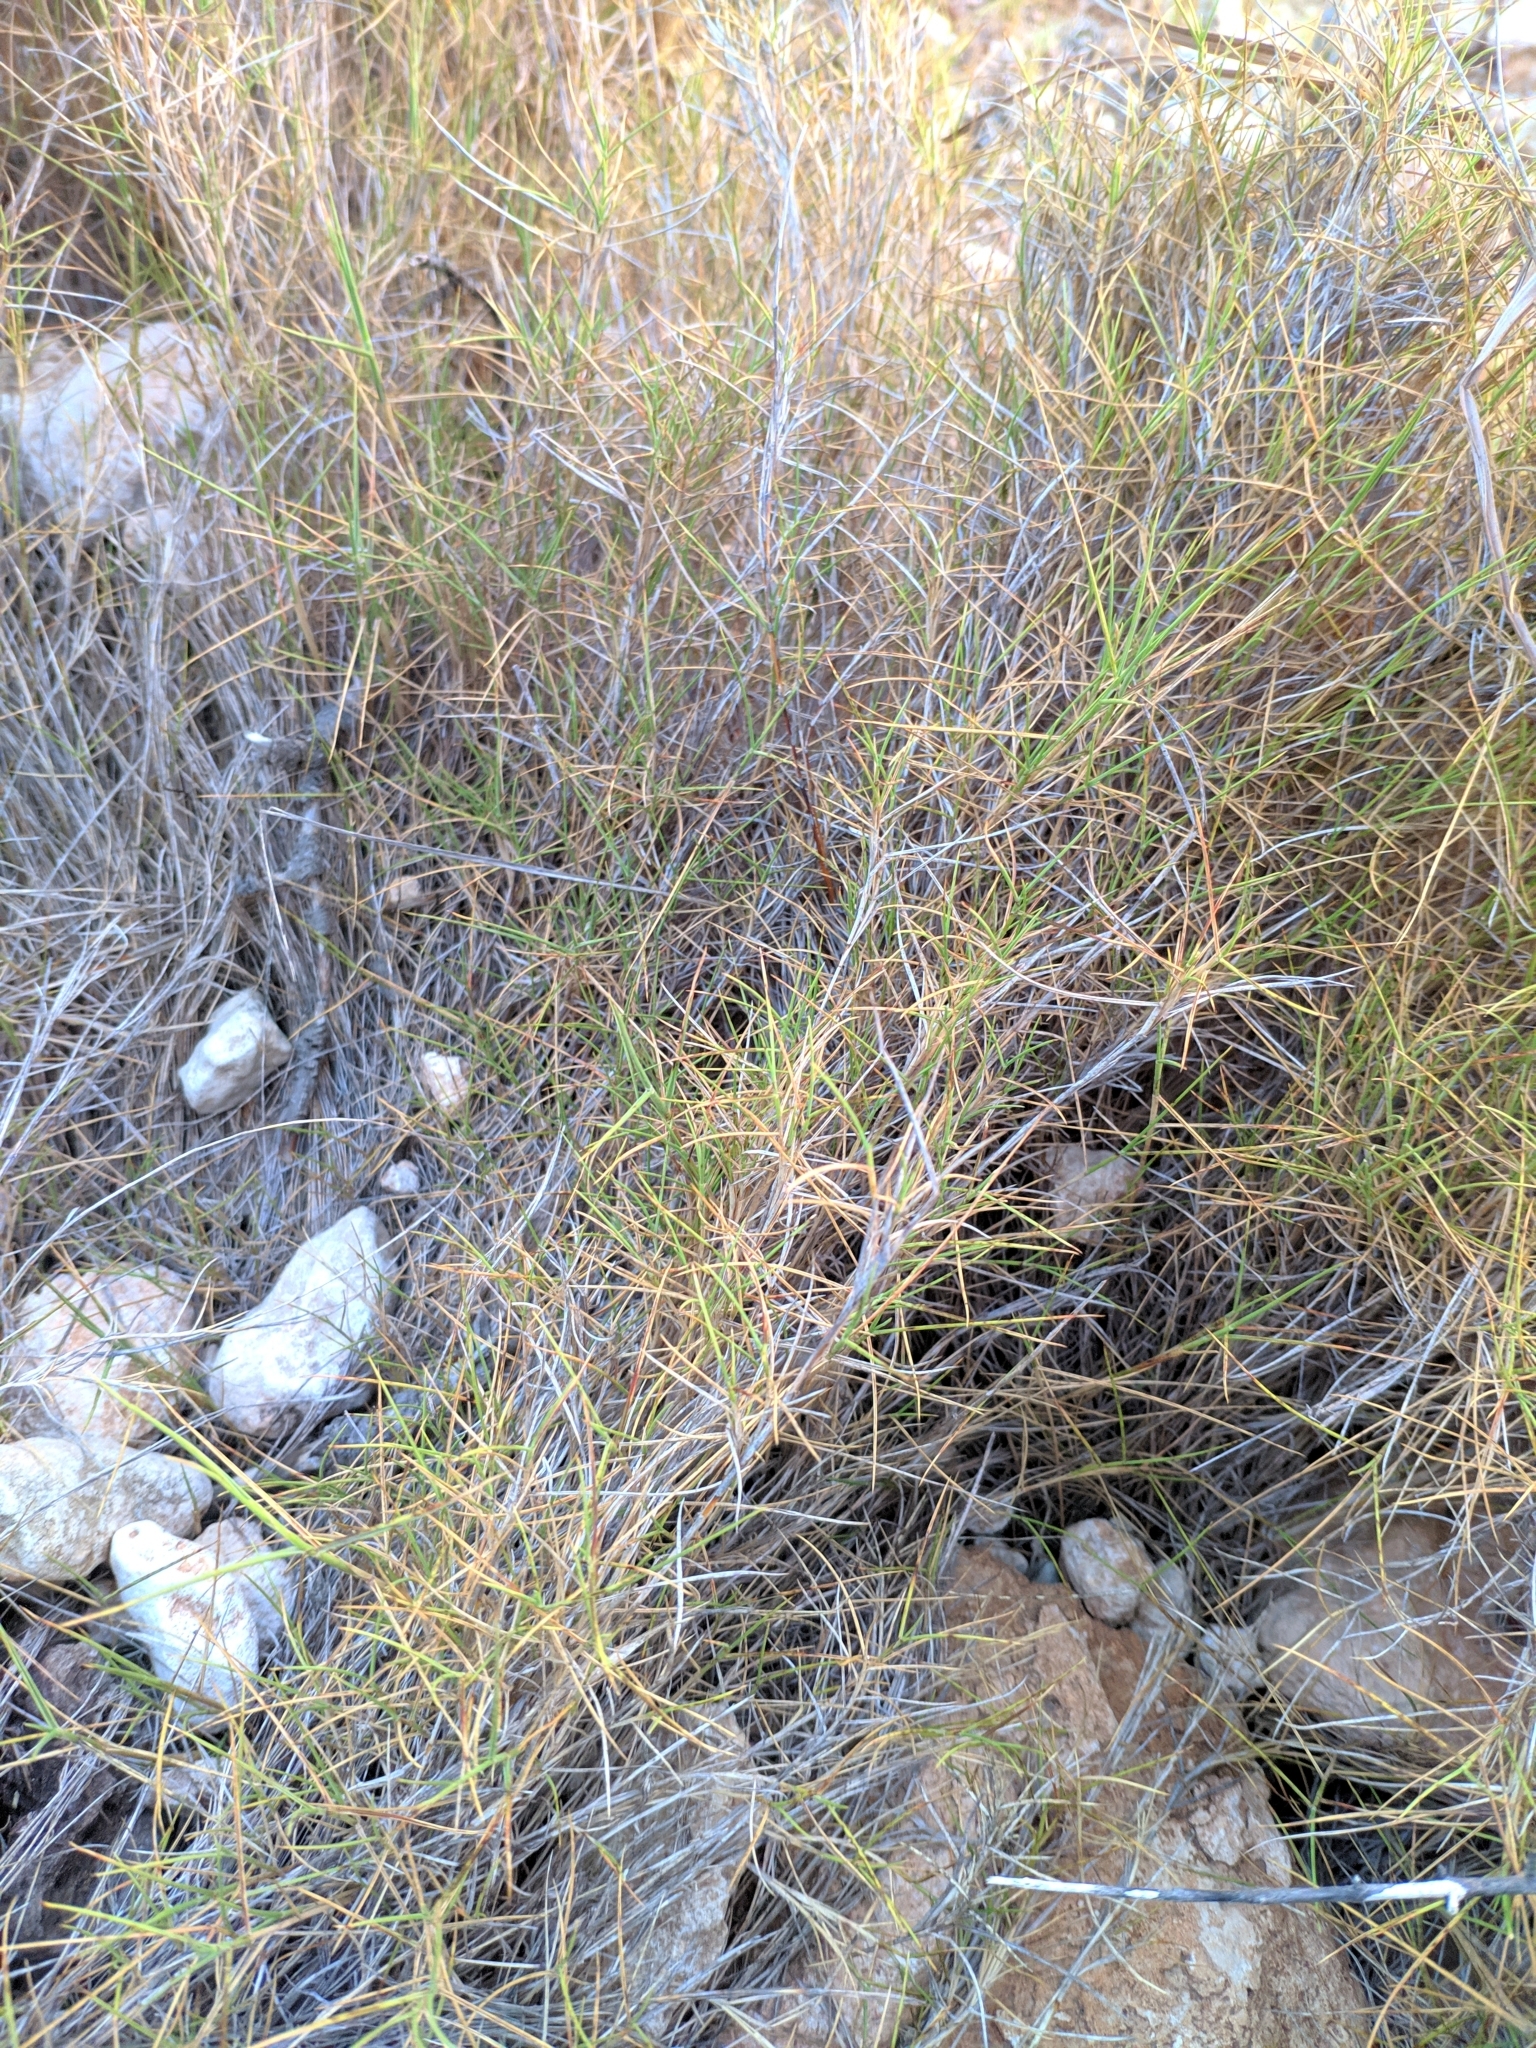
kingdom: Plantae
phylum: Tracheophyta
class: Liliopsida
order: Poales
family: Poaceae
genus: Brachypodium
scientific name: Brachypodium retusum
